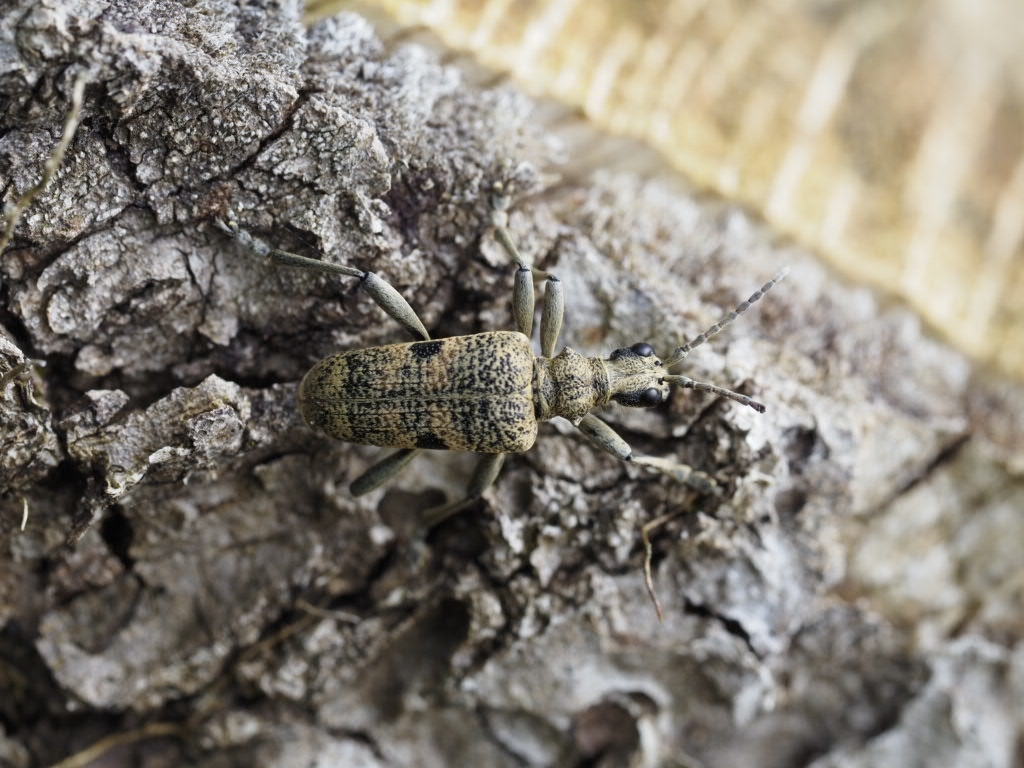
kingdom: Animalia
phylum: Arthropoda
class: Insecta
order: Coleoptera
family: Cerambycidae
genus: Rhagium
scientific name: Rhagium mordax
